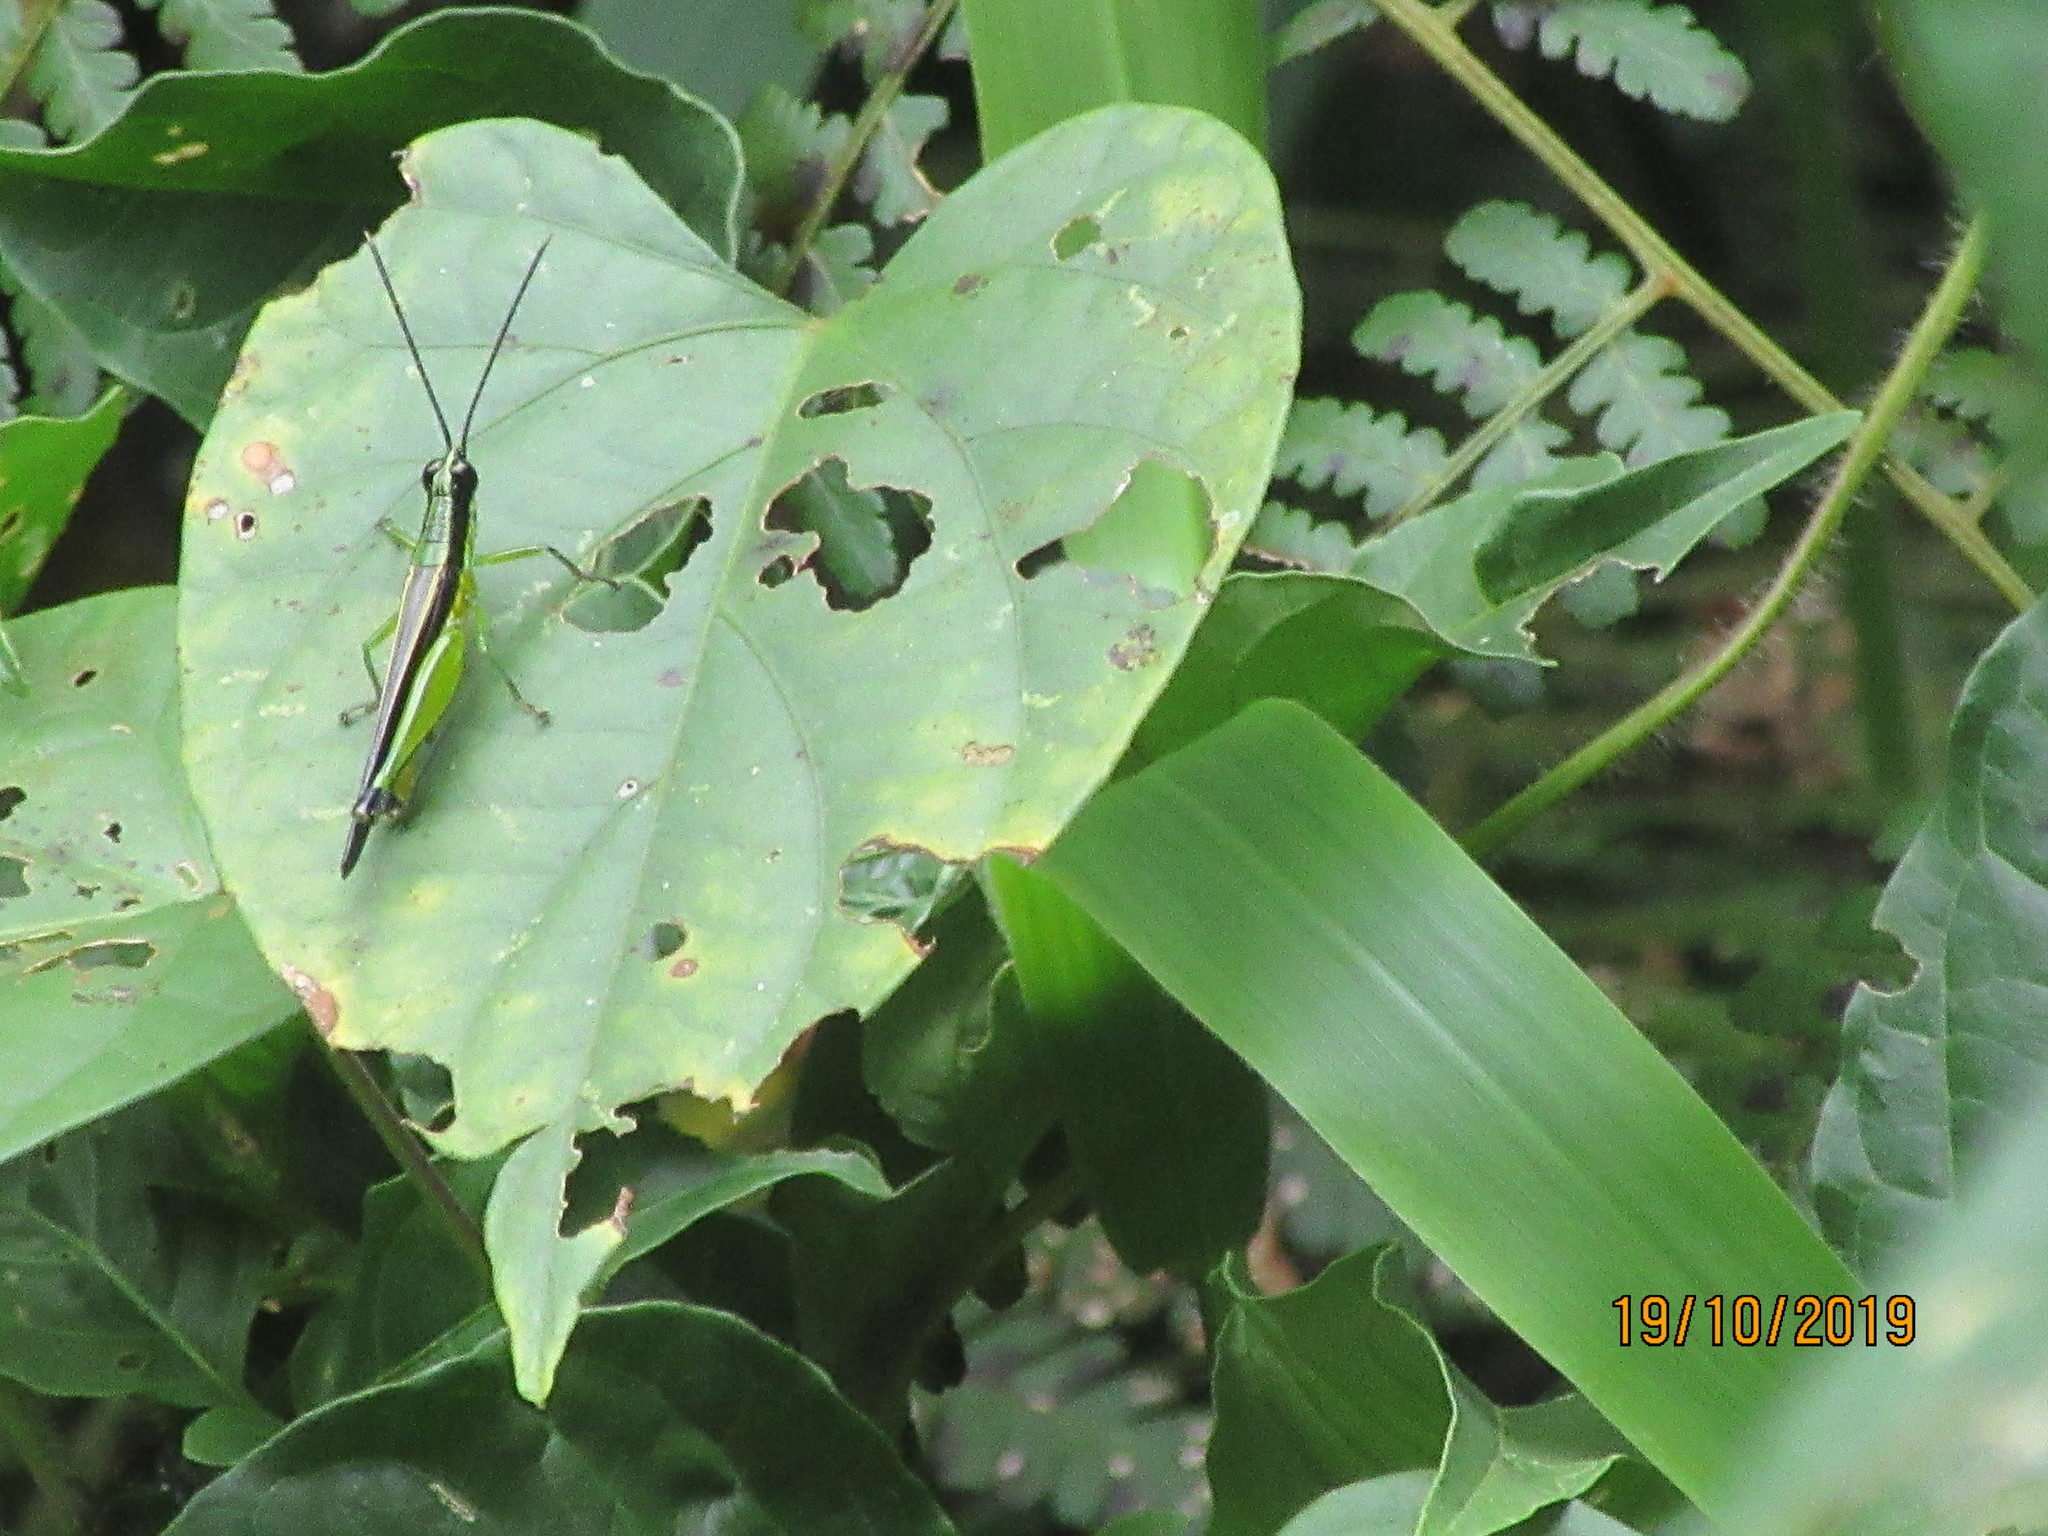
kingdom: Animalia
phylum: Arthropoda
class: Insecta
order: Orthoptera
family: Acrididae
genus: Stenopola
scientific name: Stenopola boliviana
